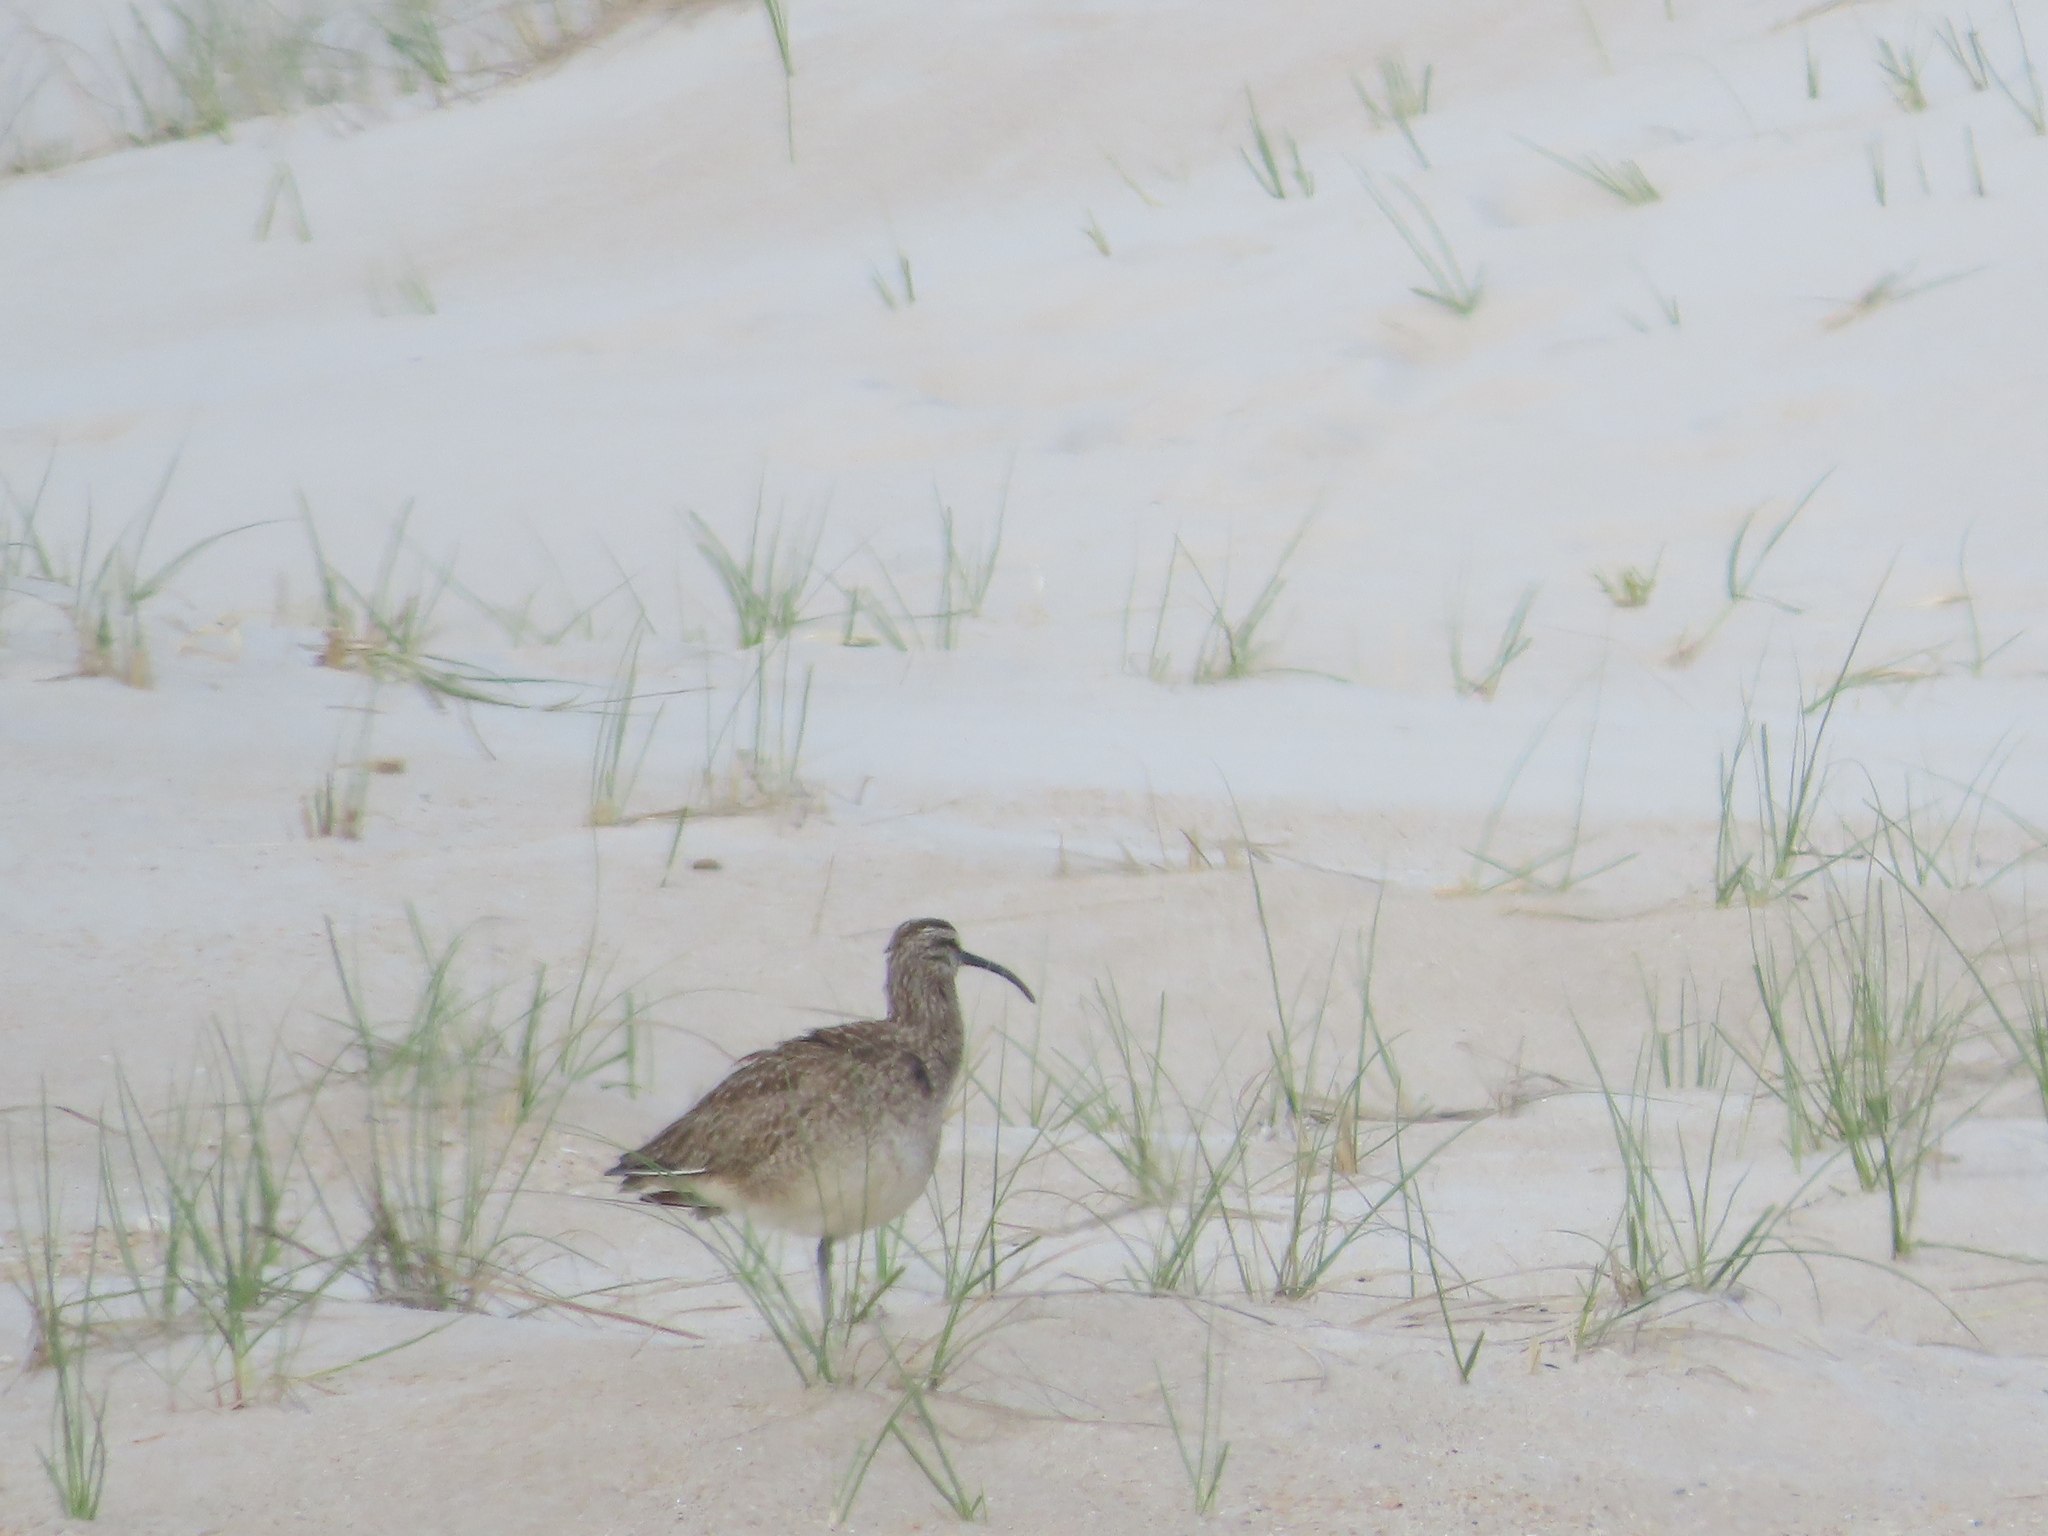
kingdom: Animalia
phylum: Chordata
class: Aves
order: Charadriiformes
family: Scolopacidae
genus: Numenius
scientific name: Numenius phaeopus
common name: Whimbrel
